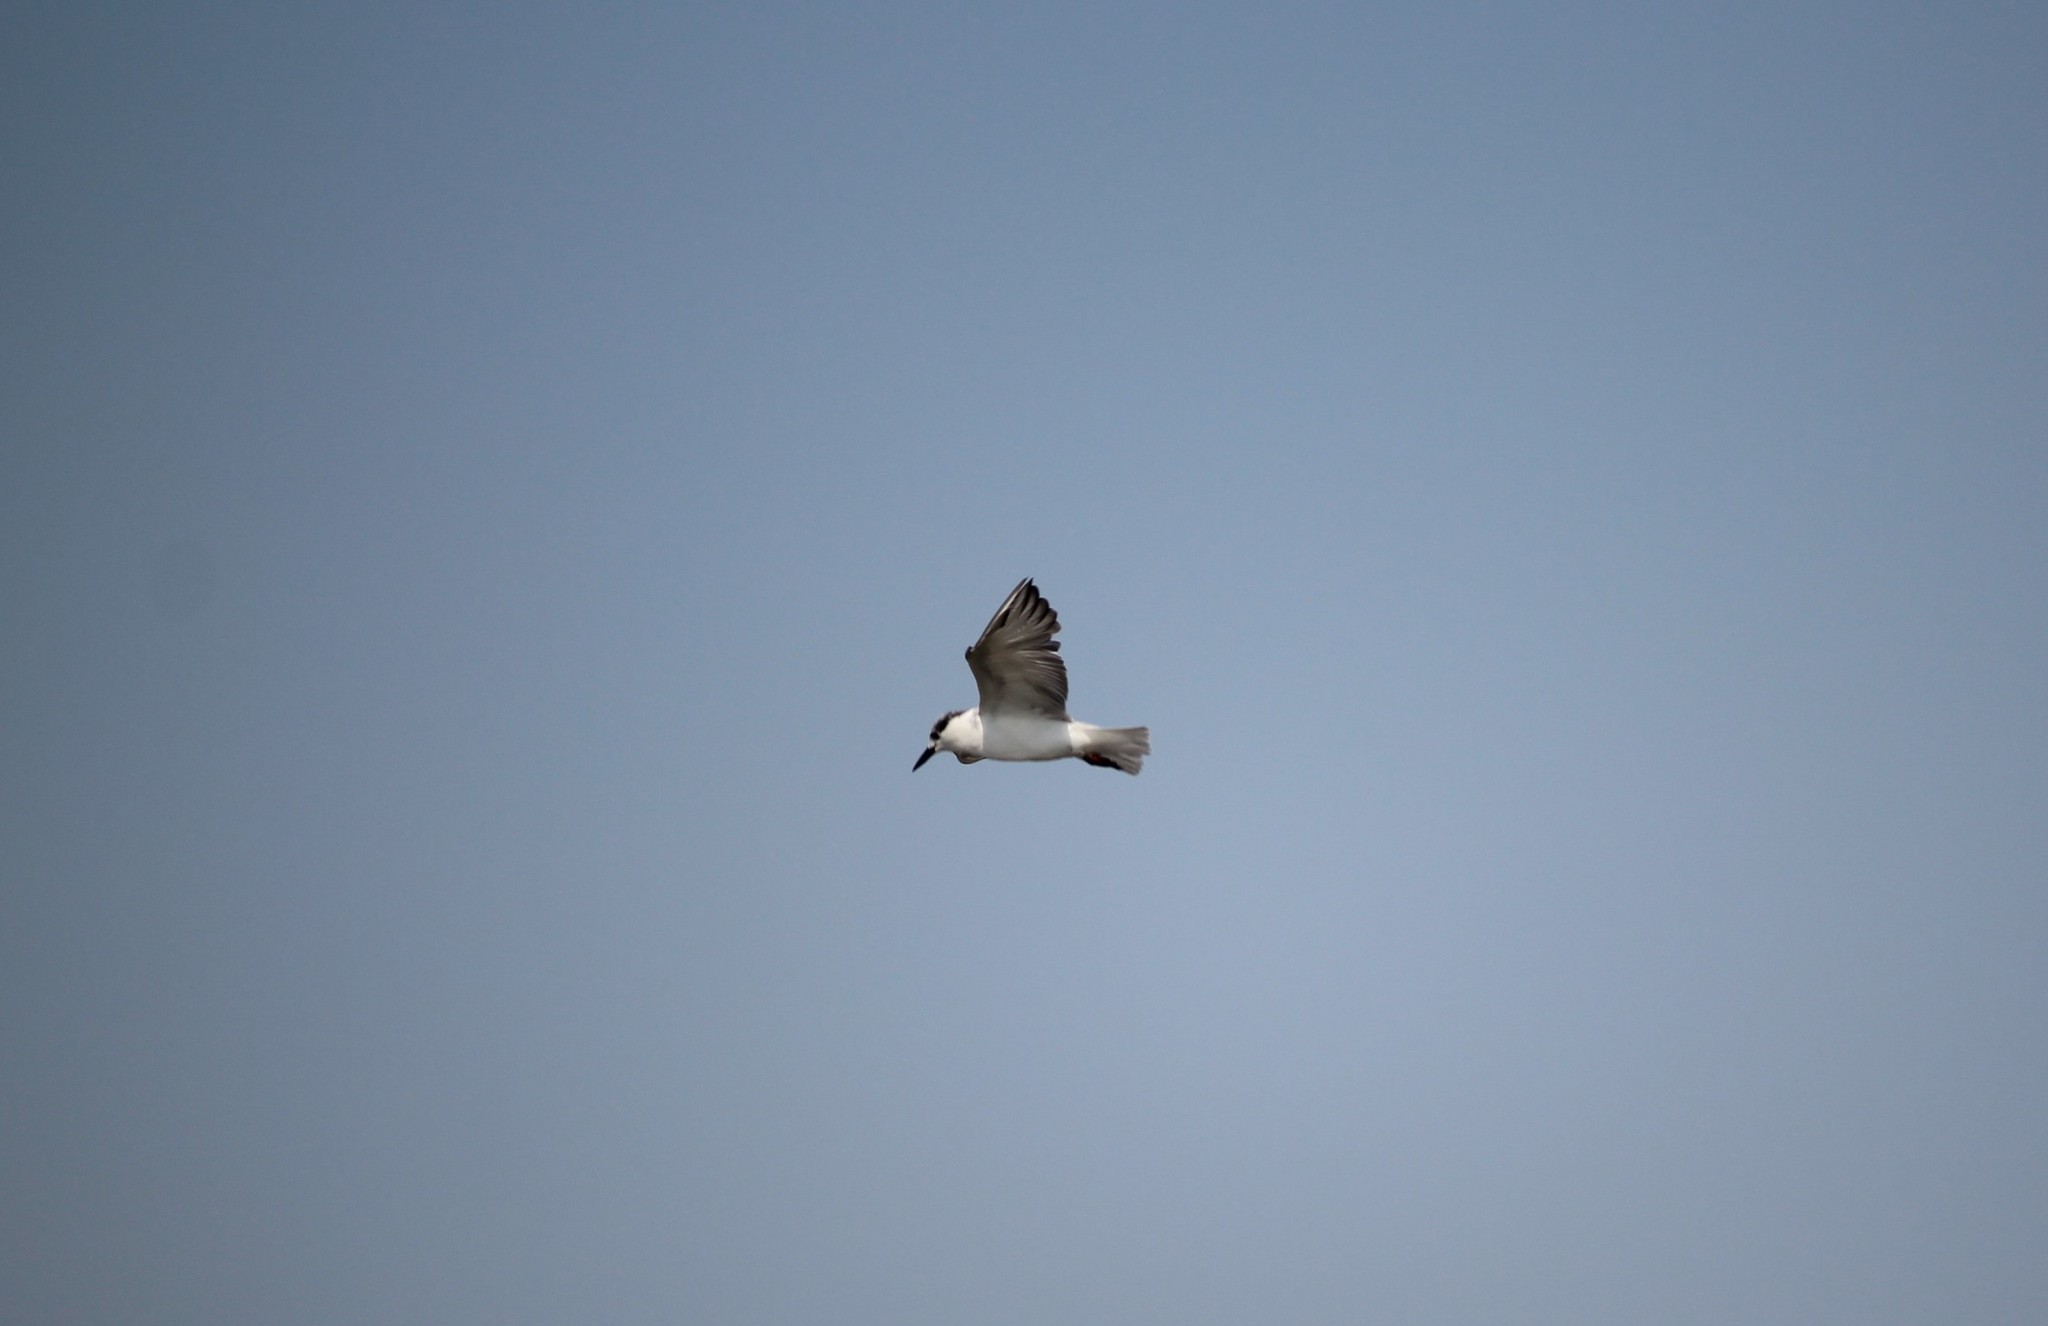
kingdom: Animalia
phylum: Chordata
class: Aves
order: Charadriiformes
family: Laridae
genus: Chlidonias
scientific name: Chlidonias hybrida
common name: Whiskered tern
